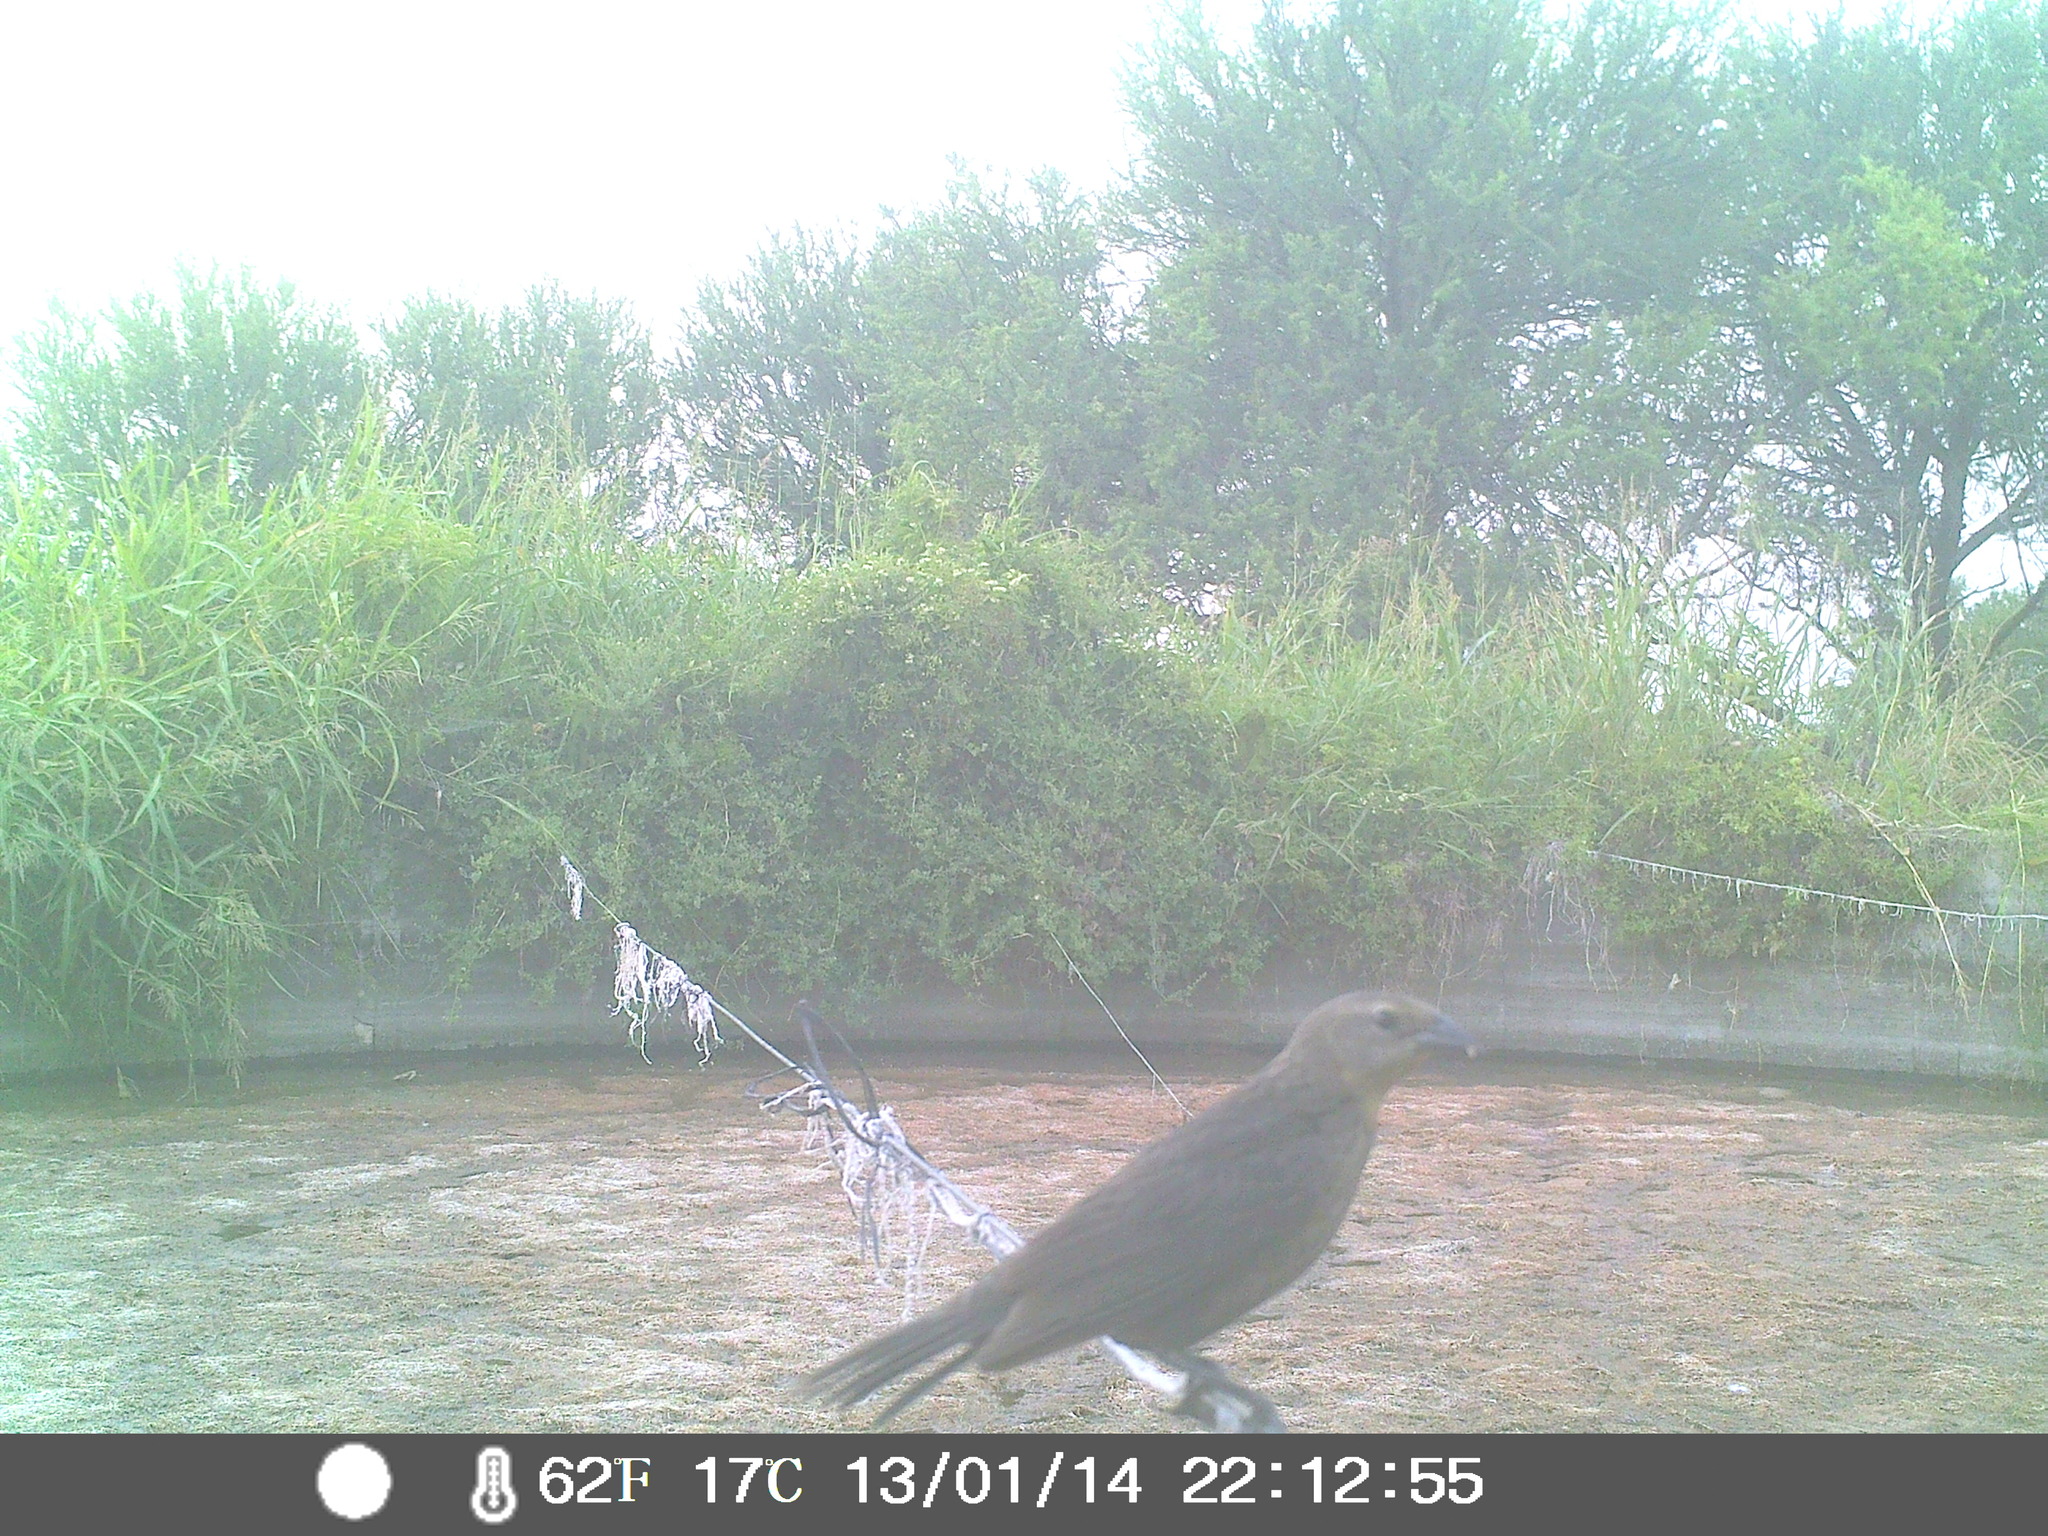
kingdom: Animalia
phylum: Chordata
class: Aves
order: Passeriformes
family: Icteridae
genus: Molothrus
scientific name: Molothrus bonariensis
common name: Shiny cowbird
